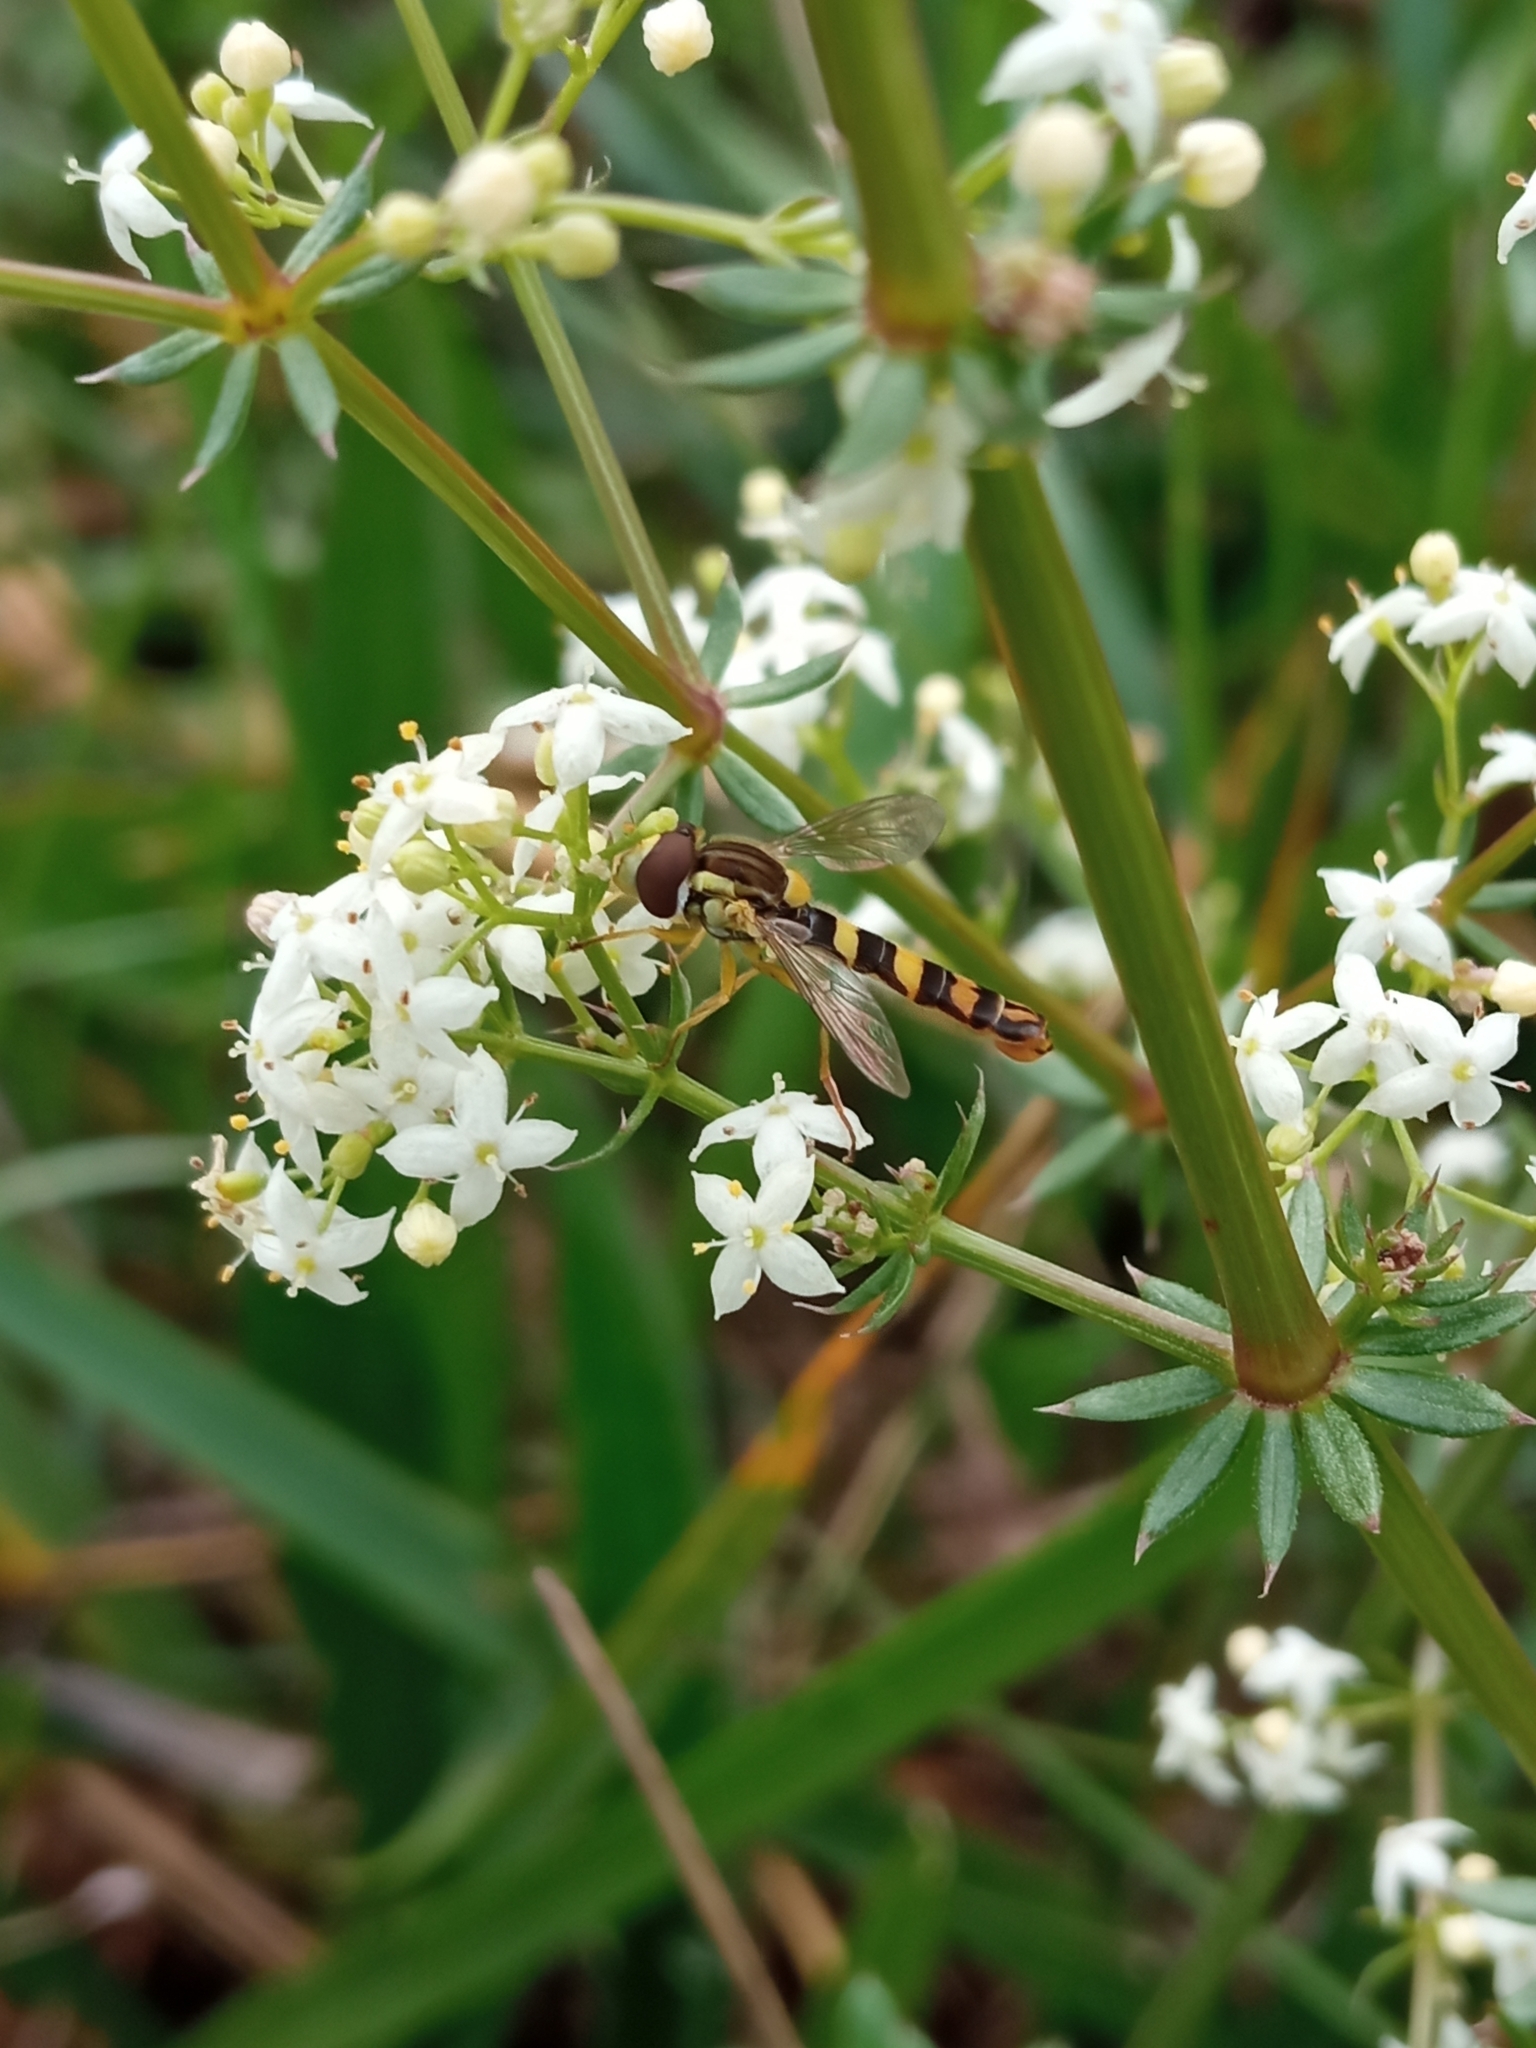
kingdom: Animalia
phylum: Arthropoda
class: Insecta
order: Diptera
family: Syrphidae
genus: Sphaerophoria
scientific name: Sphaerophoria
